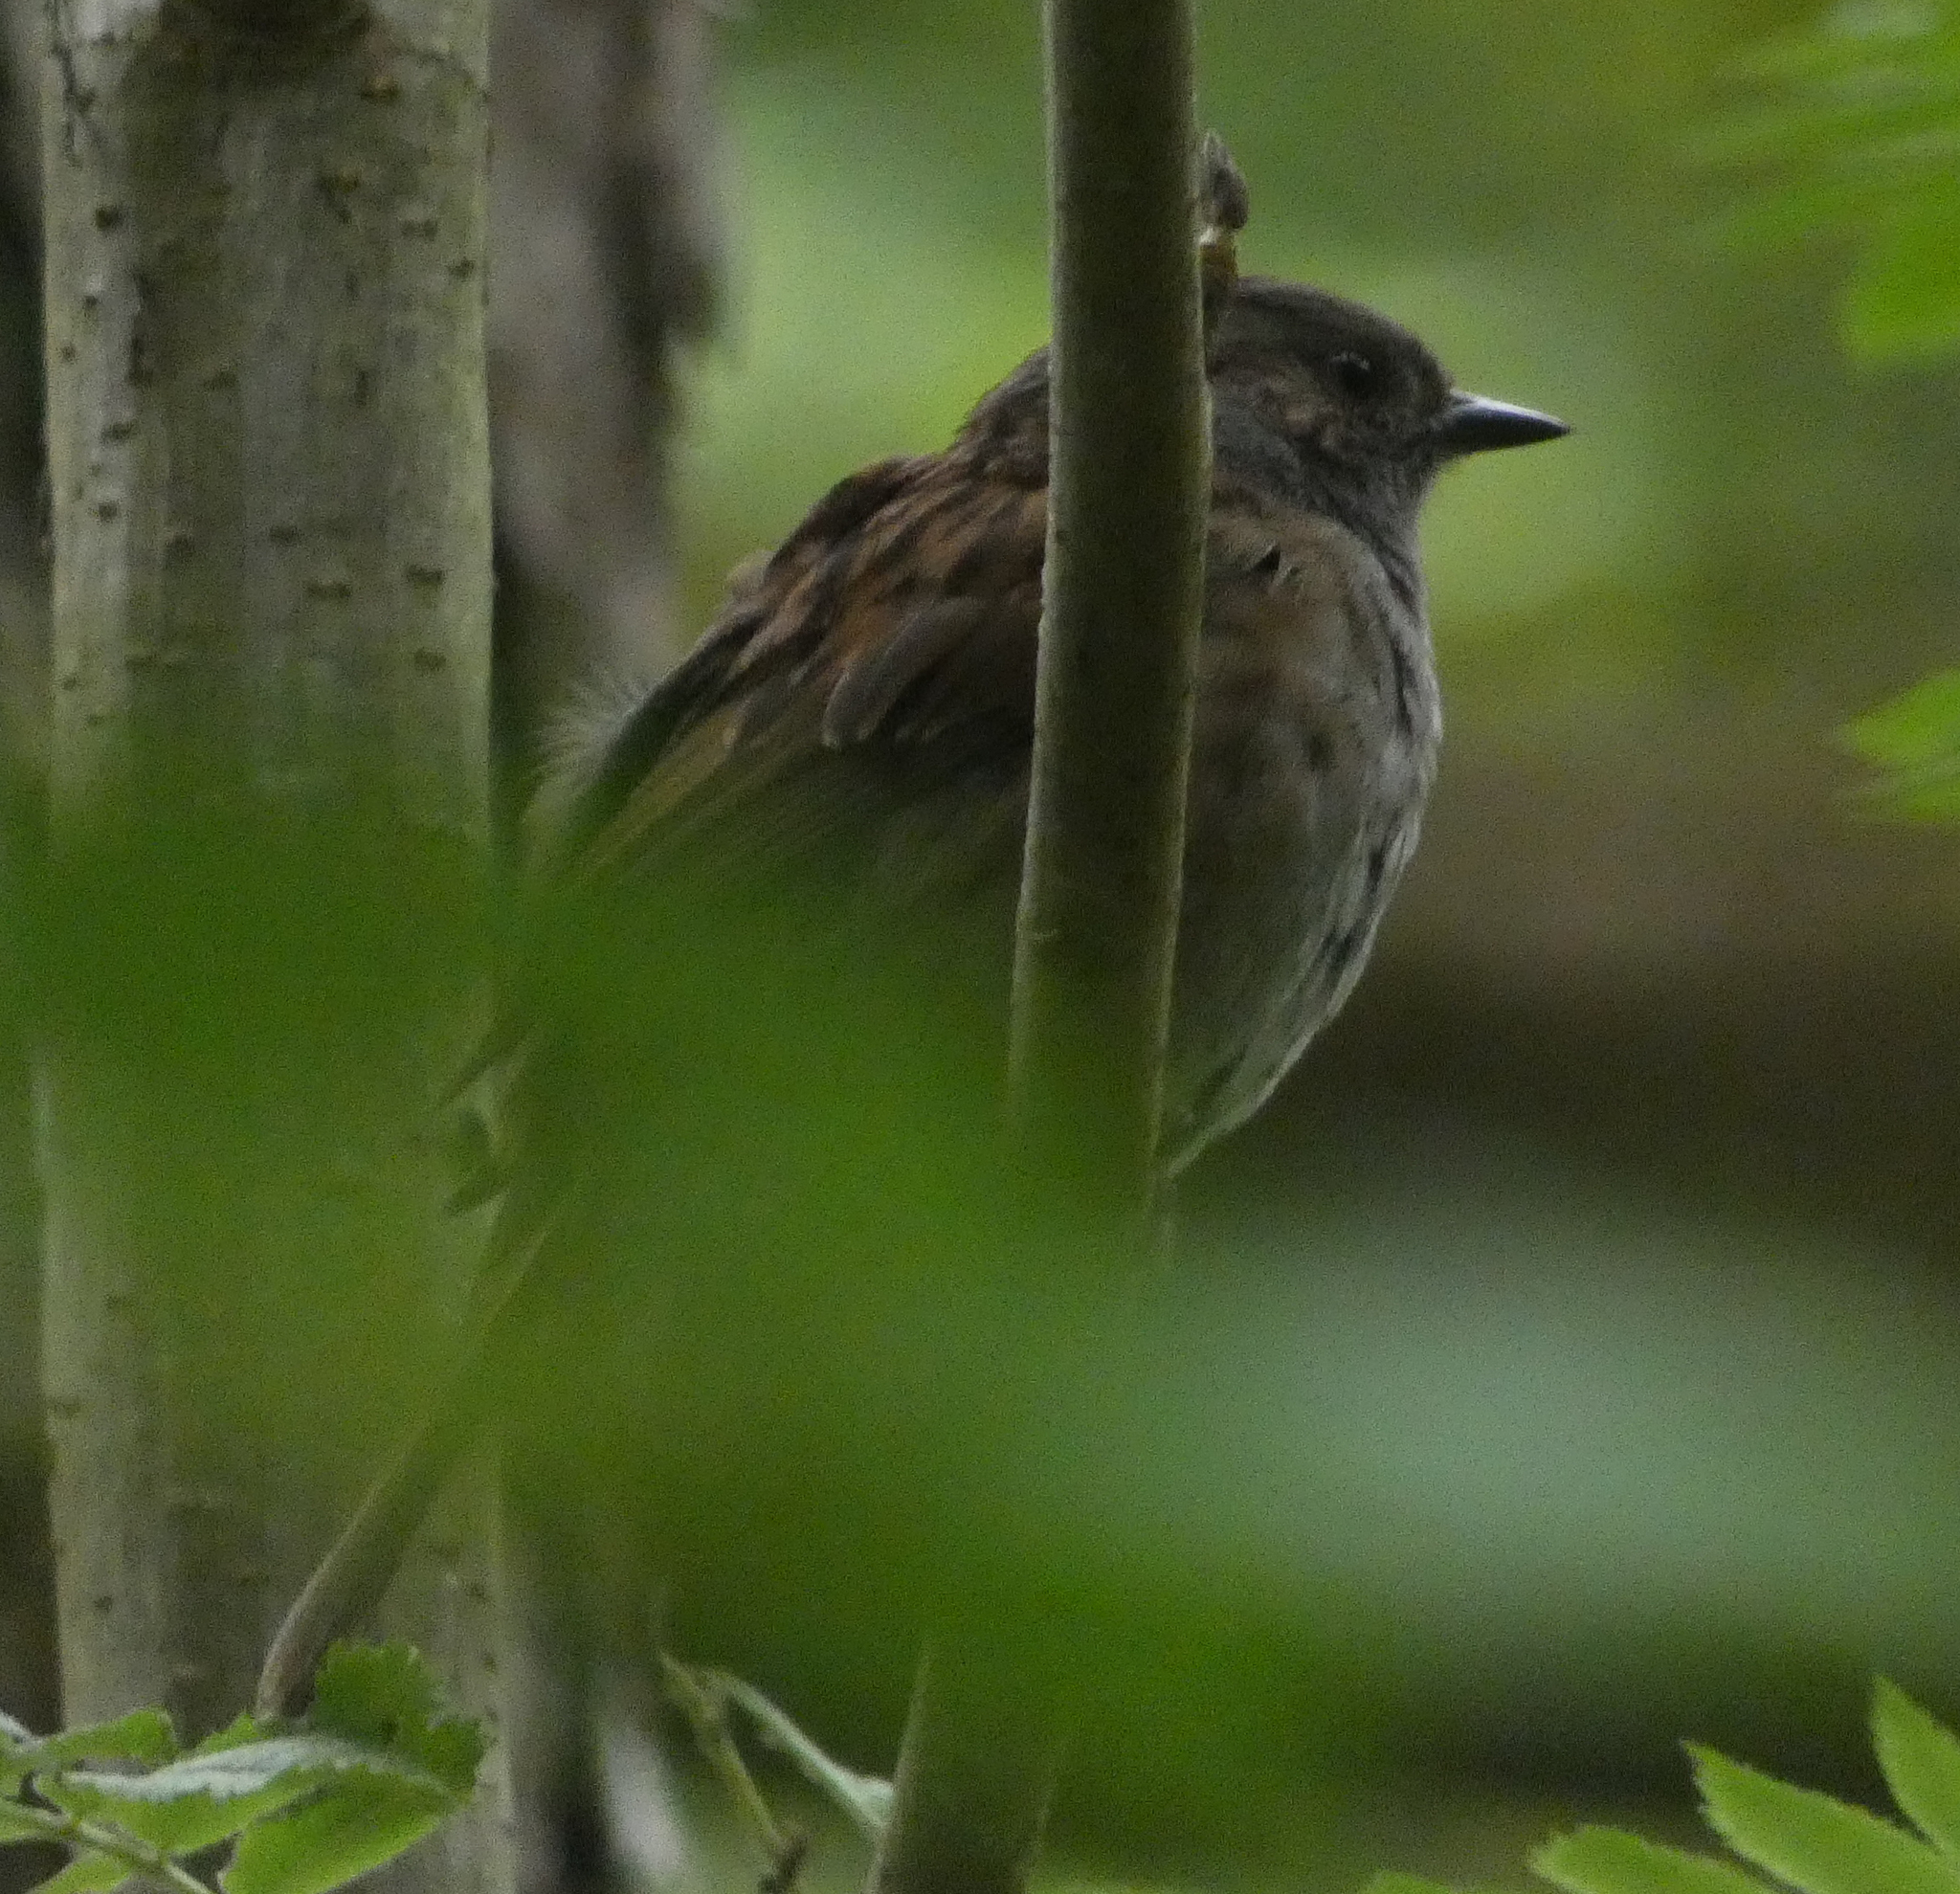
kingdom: Animalia
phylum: Chordata
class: Aves
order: Passeriformes
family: Prunellidae
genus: Prunella
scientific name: Prunella modularis
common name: Dunnock
